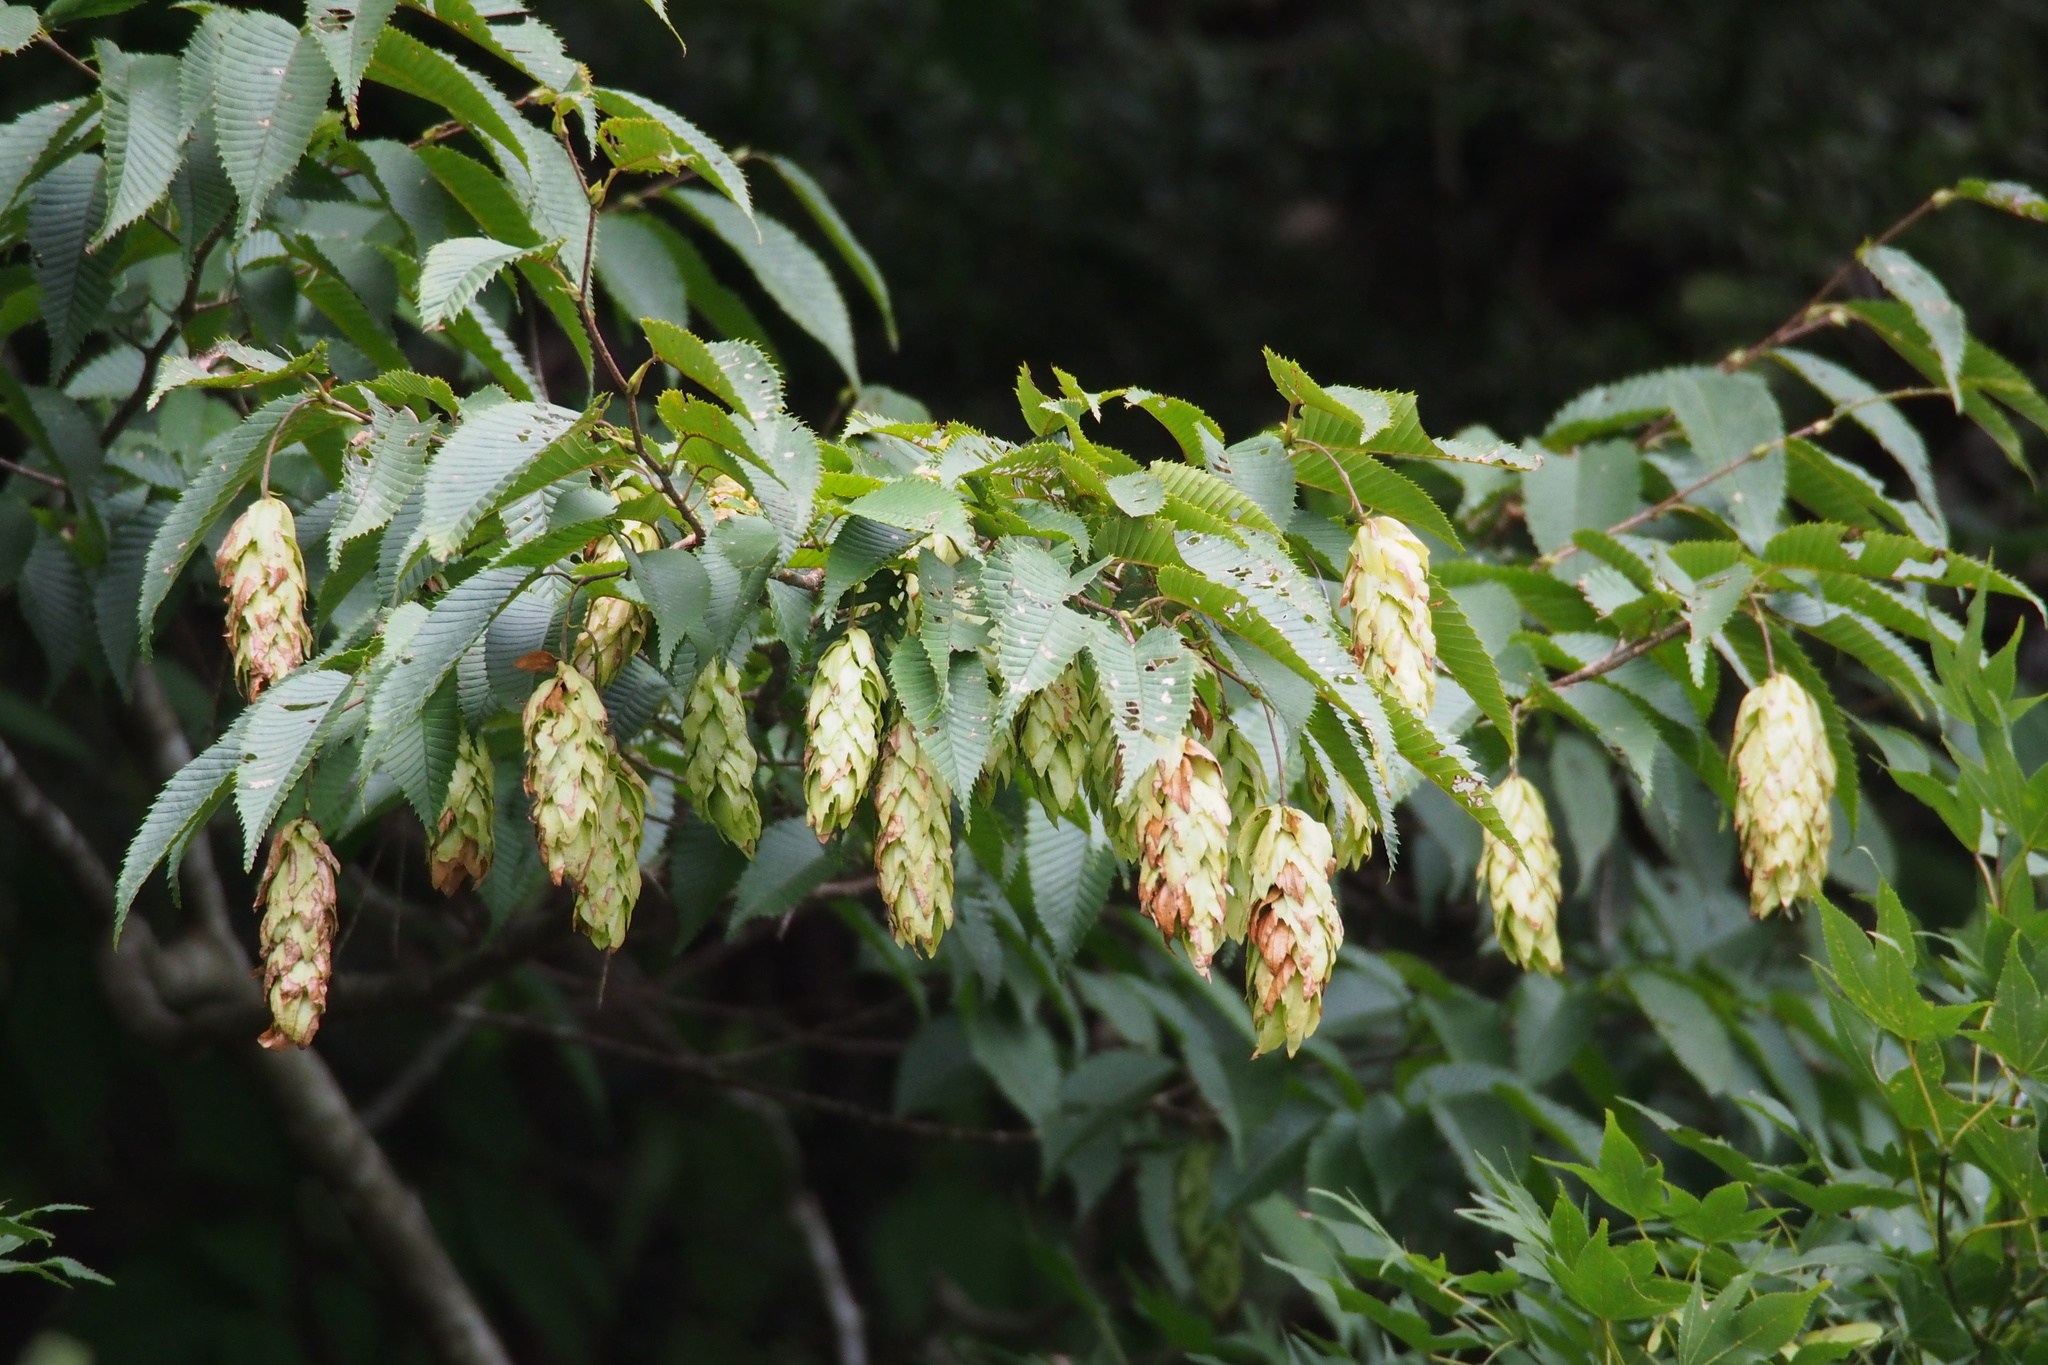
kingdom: Plantae
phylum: Tracheophyta
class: Magnoliopsida
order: Fagales
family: Betulaceae
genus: Carpinus
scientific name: Carpinus japonica
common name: Japanese hornbeam
